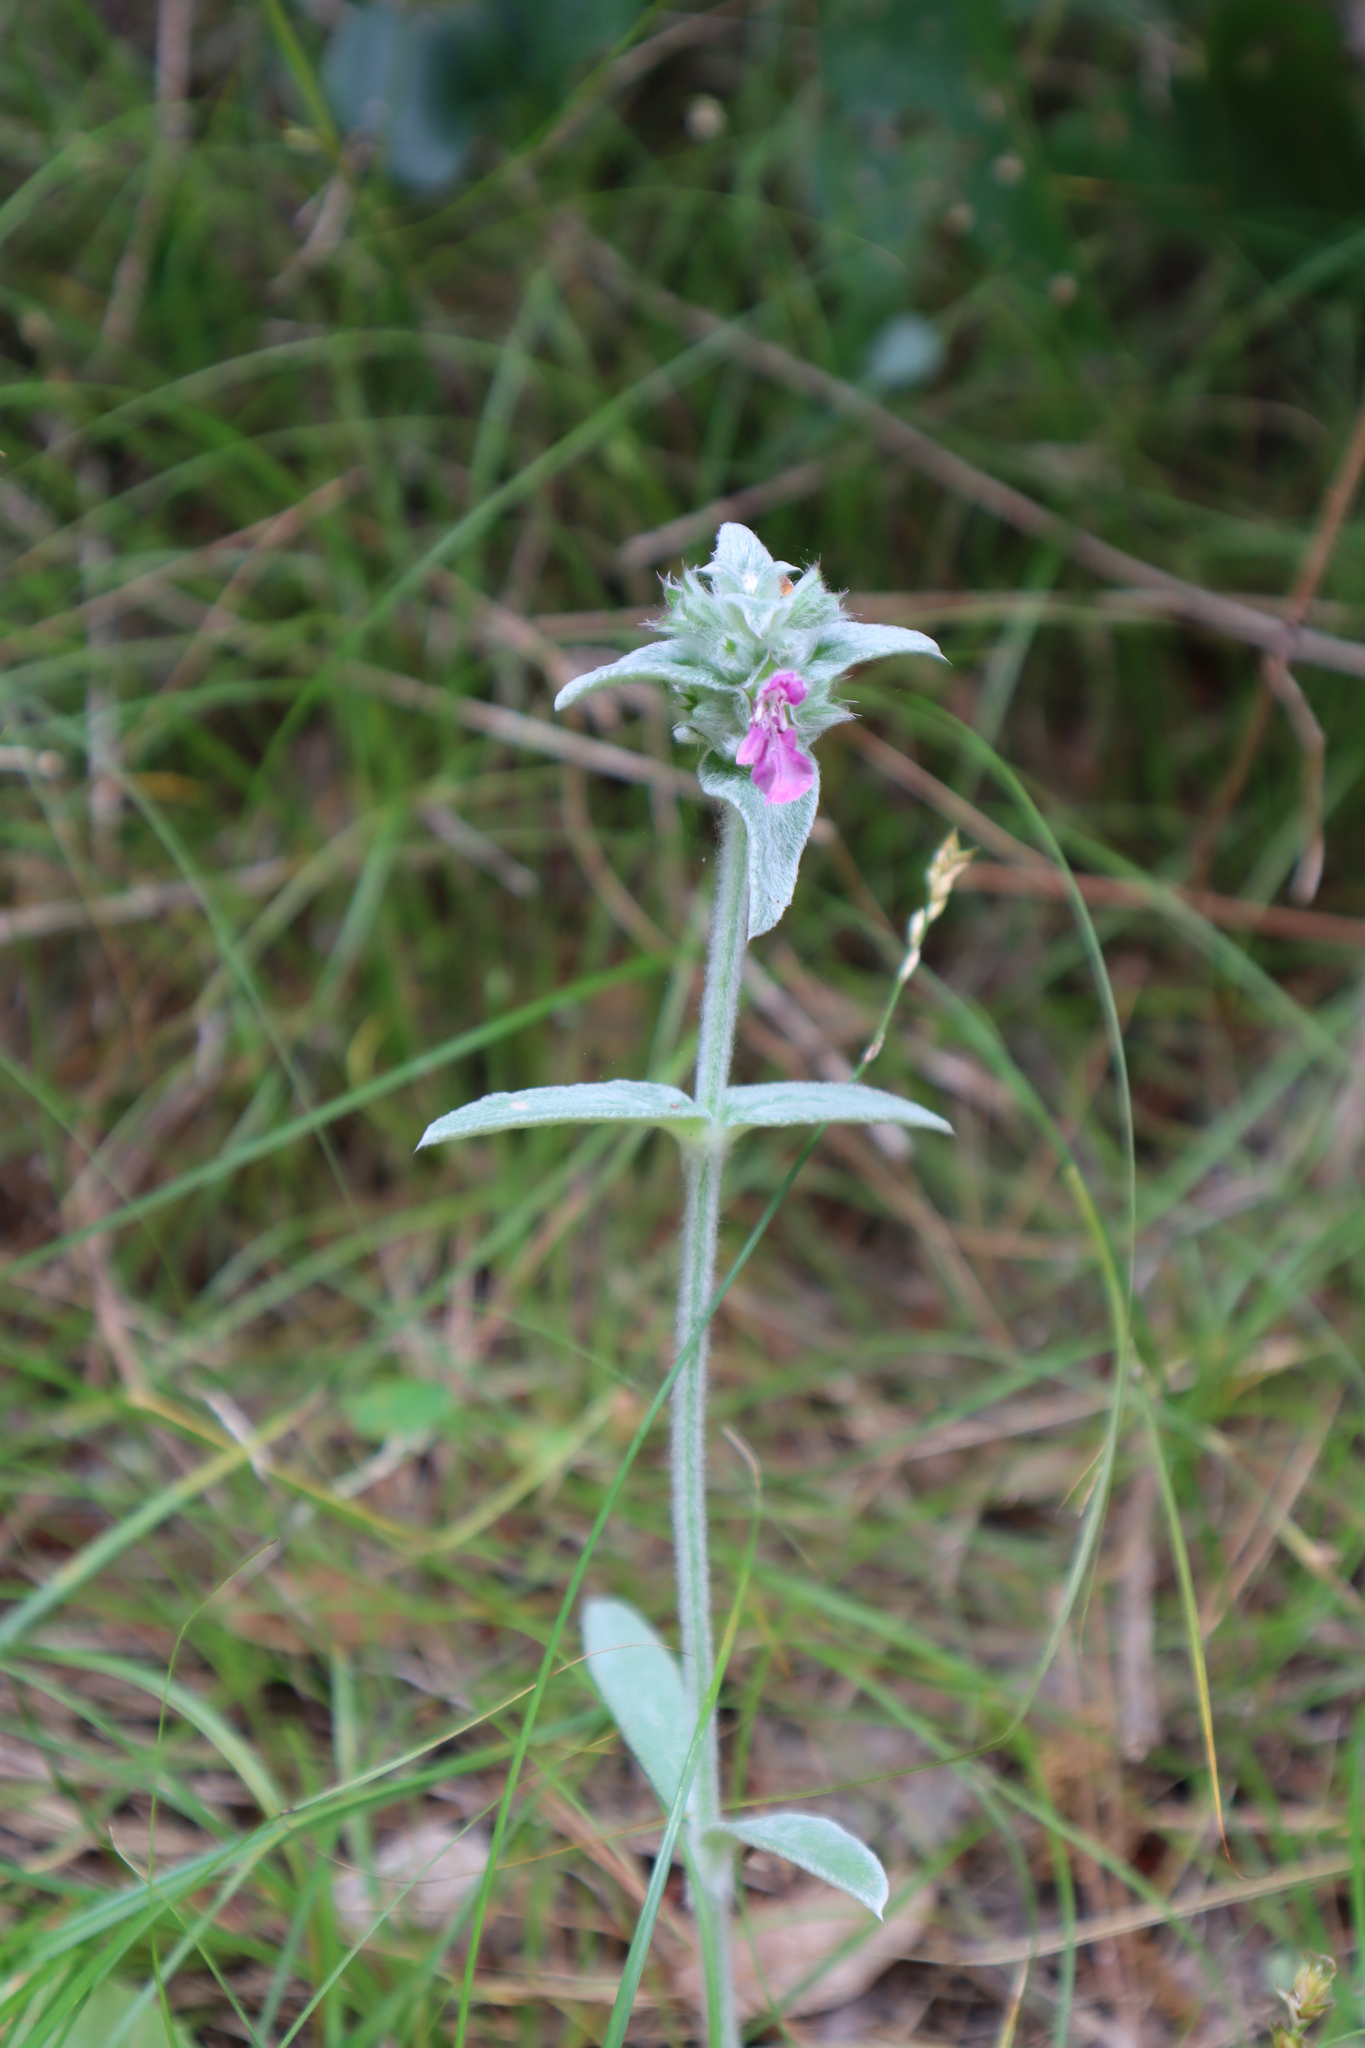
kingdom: Plantae
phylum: Tracheophyta
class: Magnoliopsida
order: Lamiales
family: Lamiaceae
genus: Stachys
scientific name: Stachys cretica
